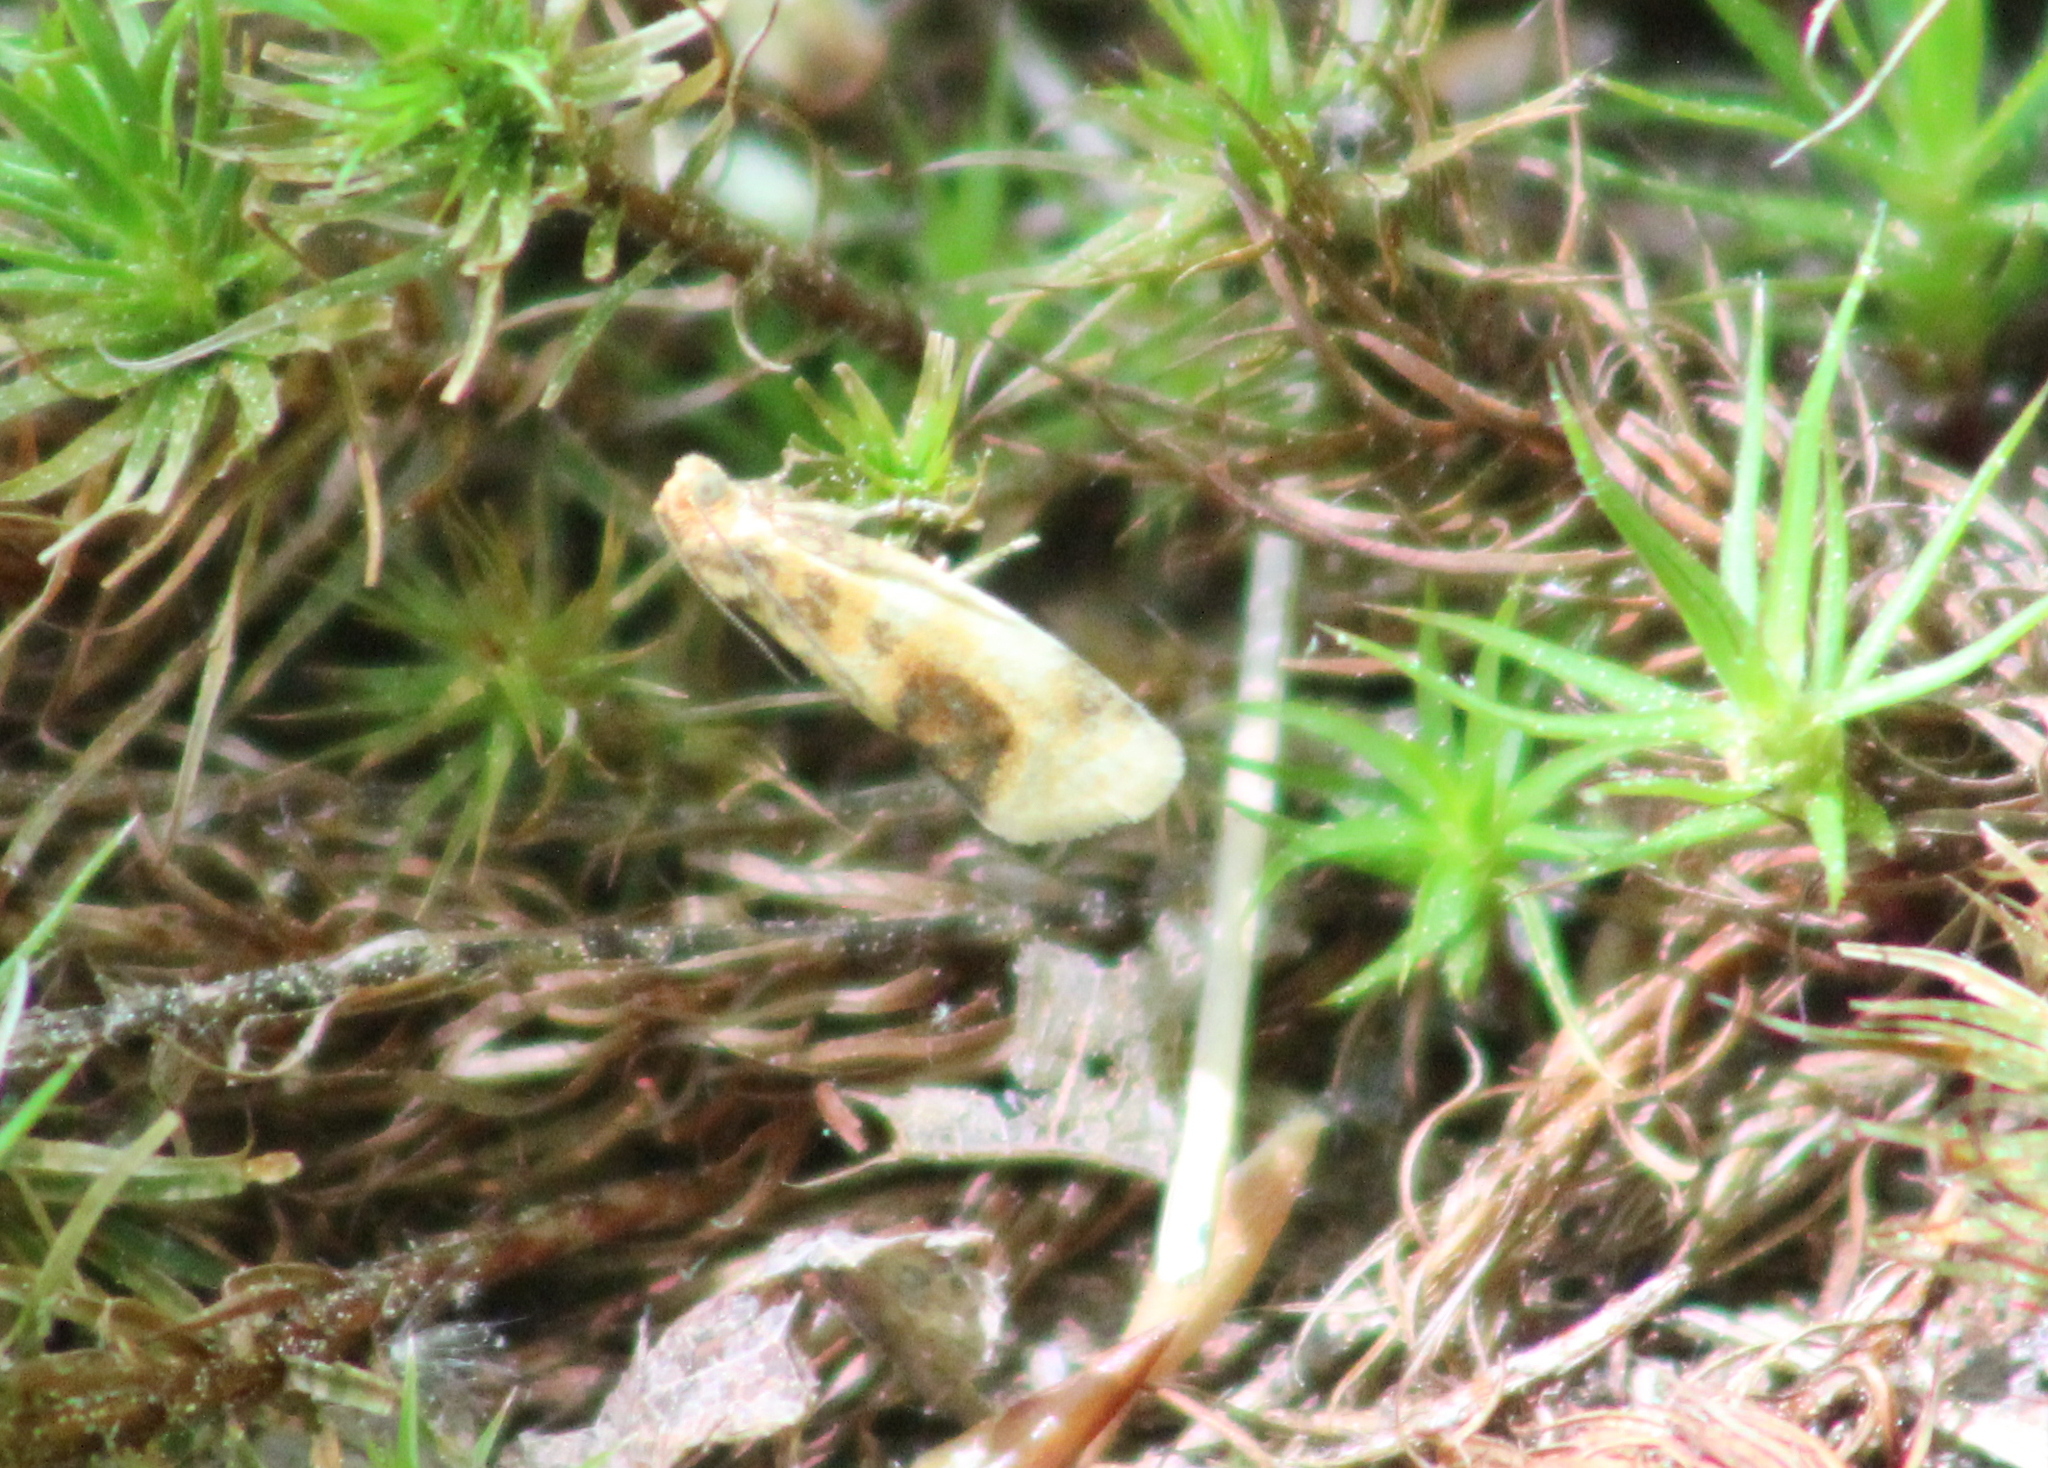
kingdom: Animalia
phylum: Arthropoda
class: Insecta
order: Lepidoptera
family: Tortricidae
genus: Clepsis
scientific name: Clepsis melaleucanus
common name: American apple tortrix
